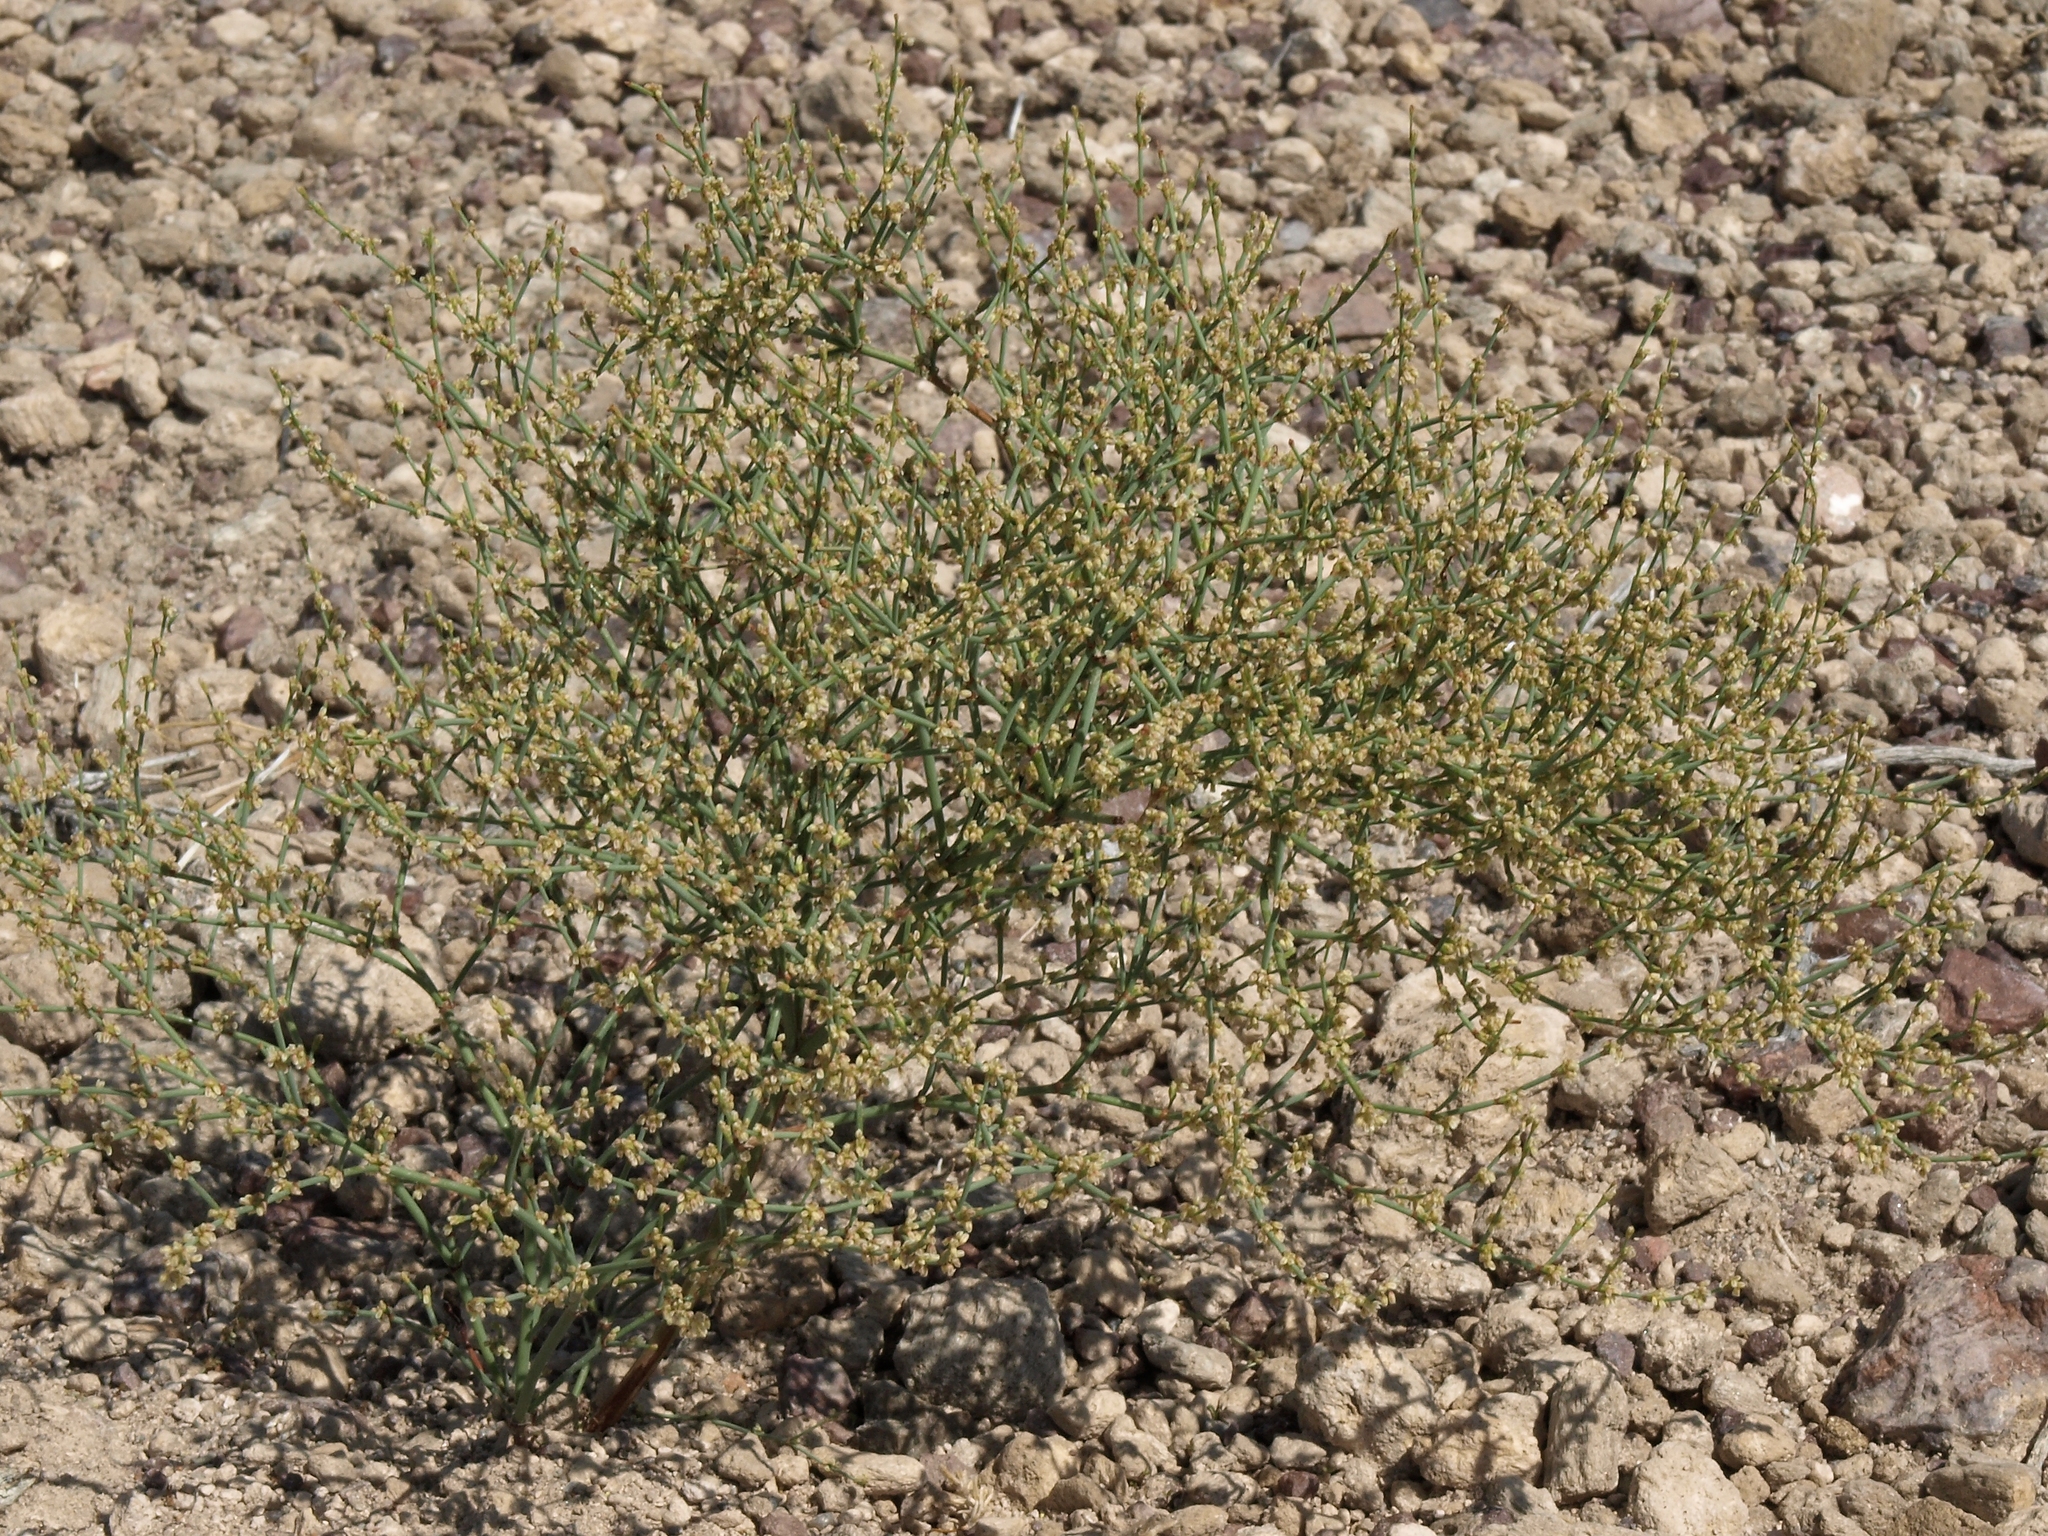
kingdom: Plantae
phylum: Tracheophyta
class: Magnoliopsida
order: Caryophyllales
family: Polygonaceae
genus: Eriogonum
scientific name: Eriogonum brachyanthum
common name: Short-flower wild buckwheat
